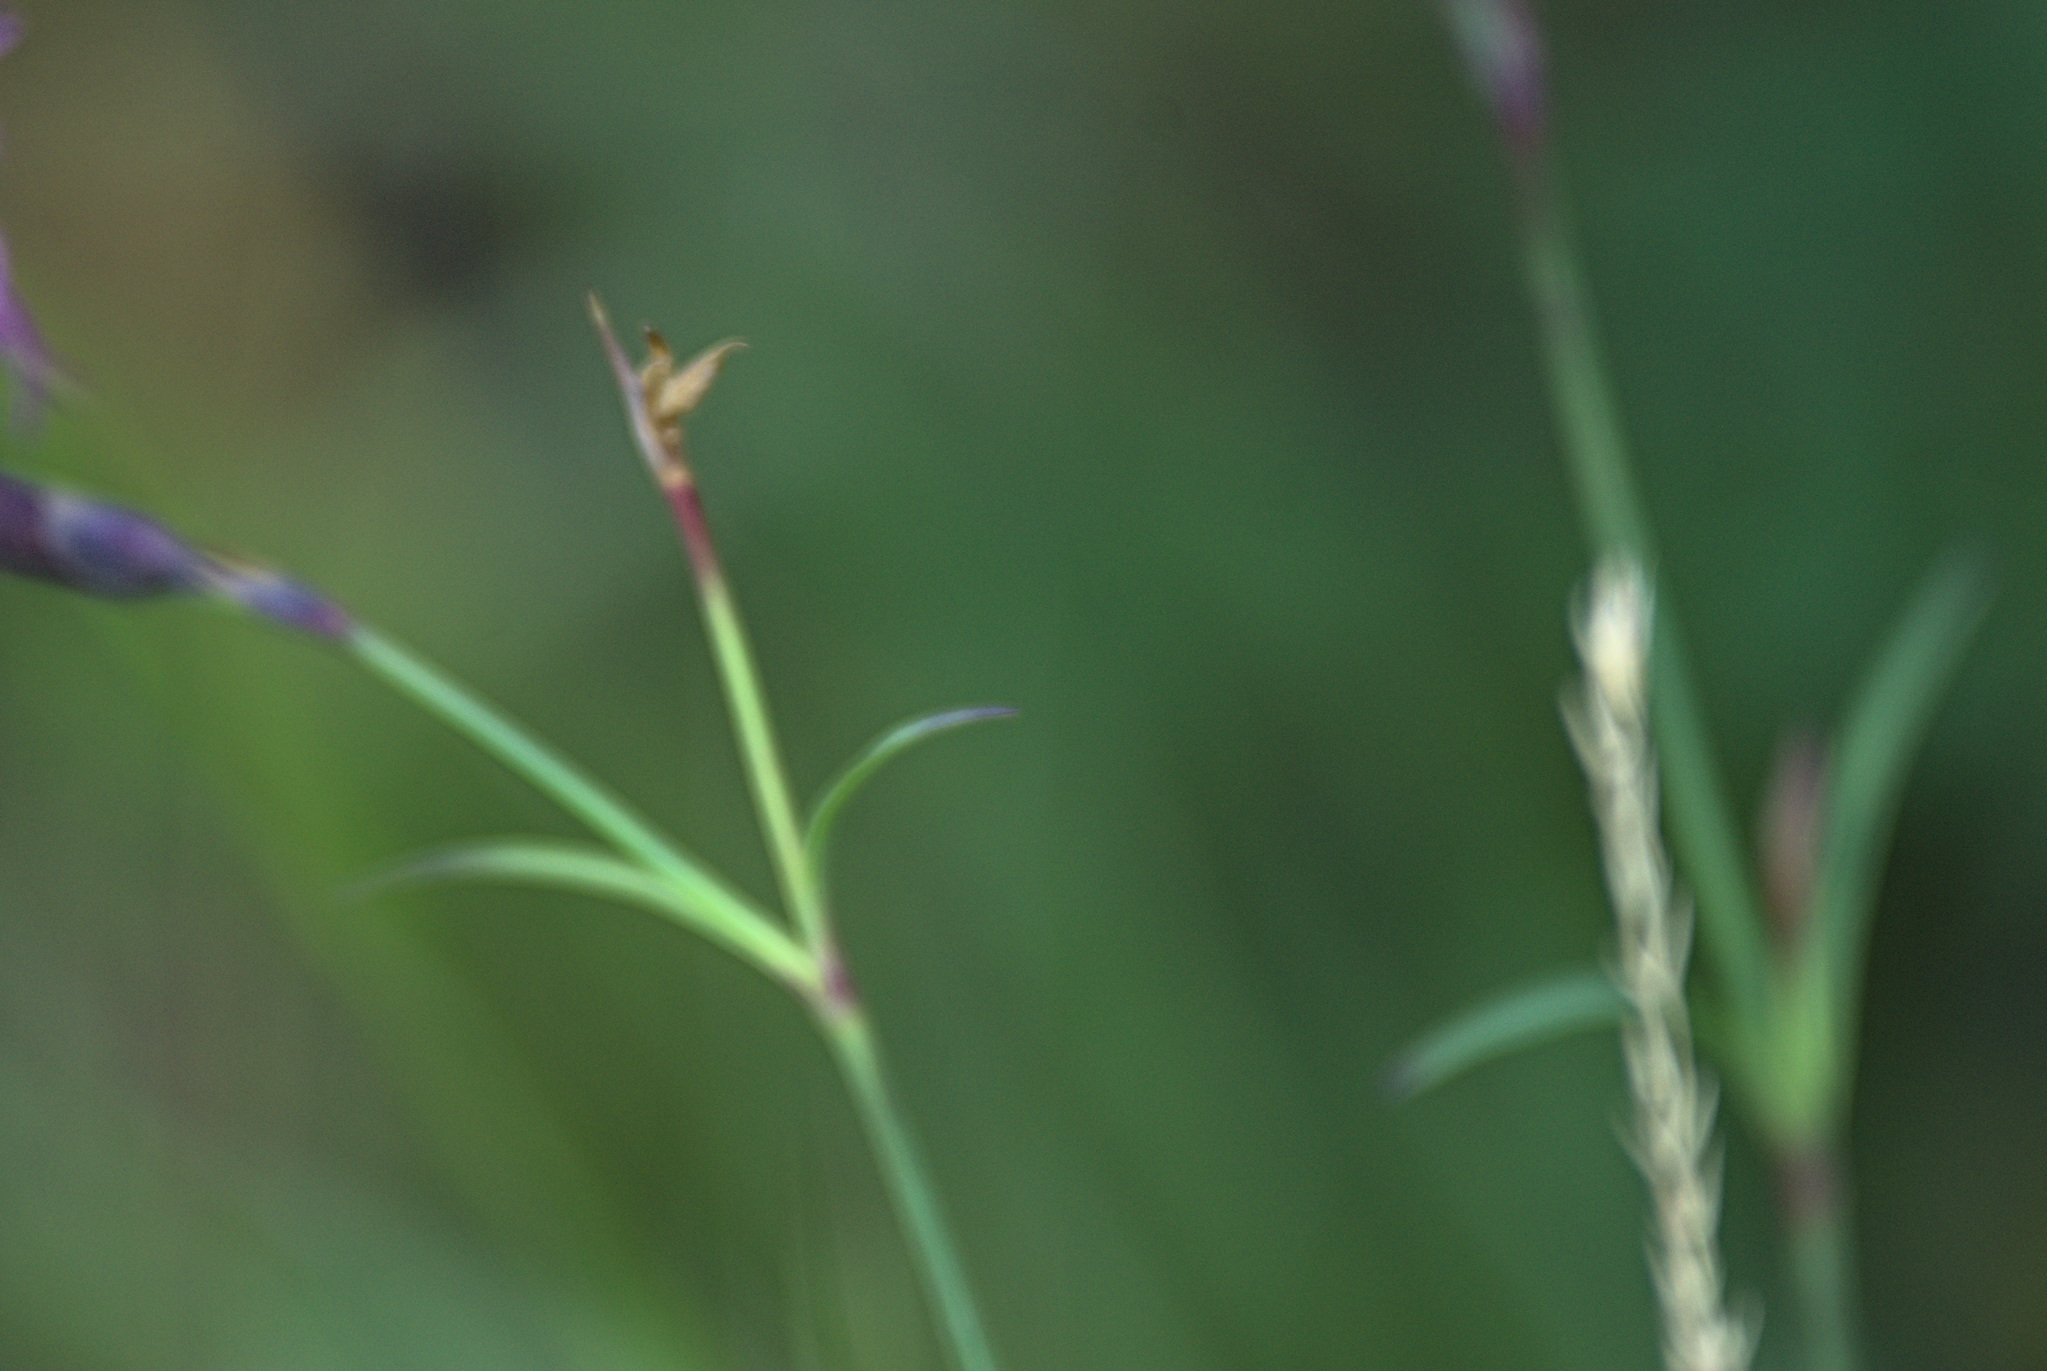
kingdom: Plantae
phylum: Tracheophyta
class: Magnoliopsida
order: Caryophyllales
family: Caryophyllaceae
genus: Dianthus
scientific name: Dianthus superbus
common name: Fringed pink
